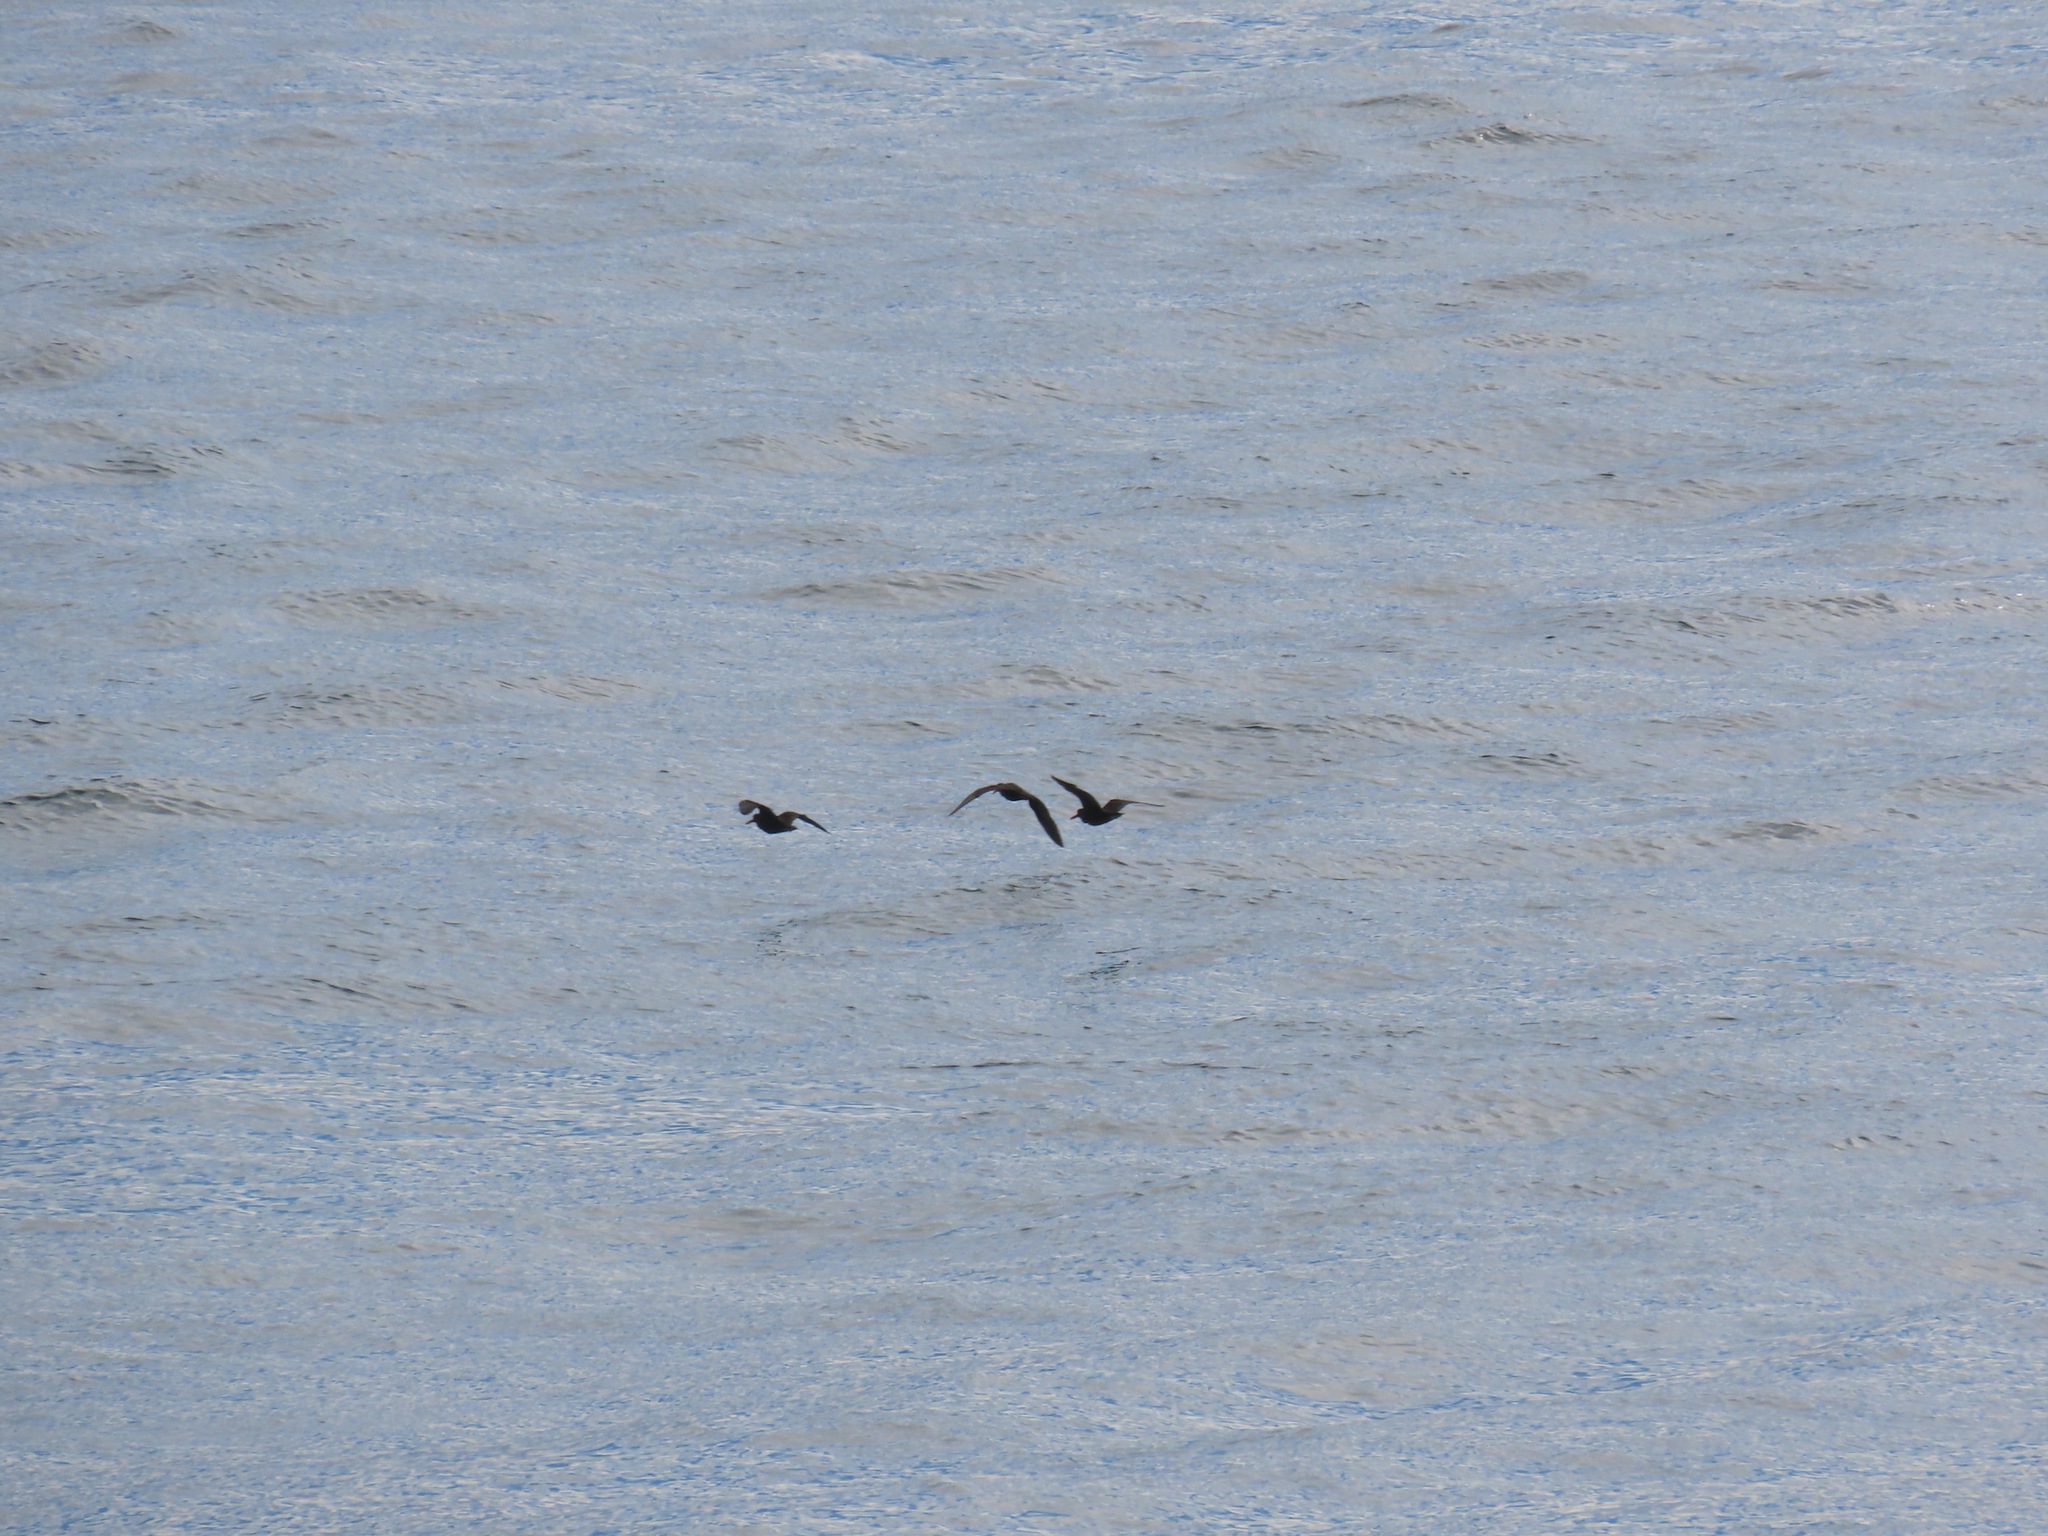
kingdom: Animalia
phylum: Chordata
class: Aves
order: Charadriiformes
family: Haematopodidae
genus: Haematopus
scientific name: Haematopus bachmani
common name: Black oystercatcher
